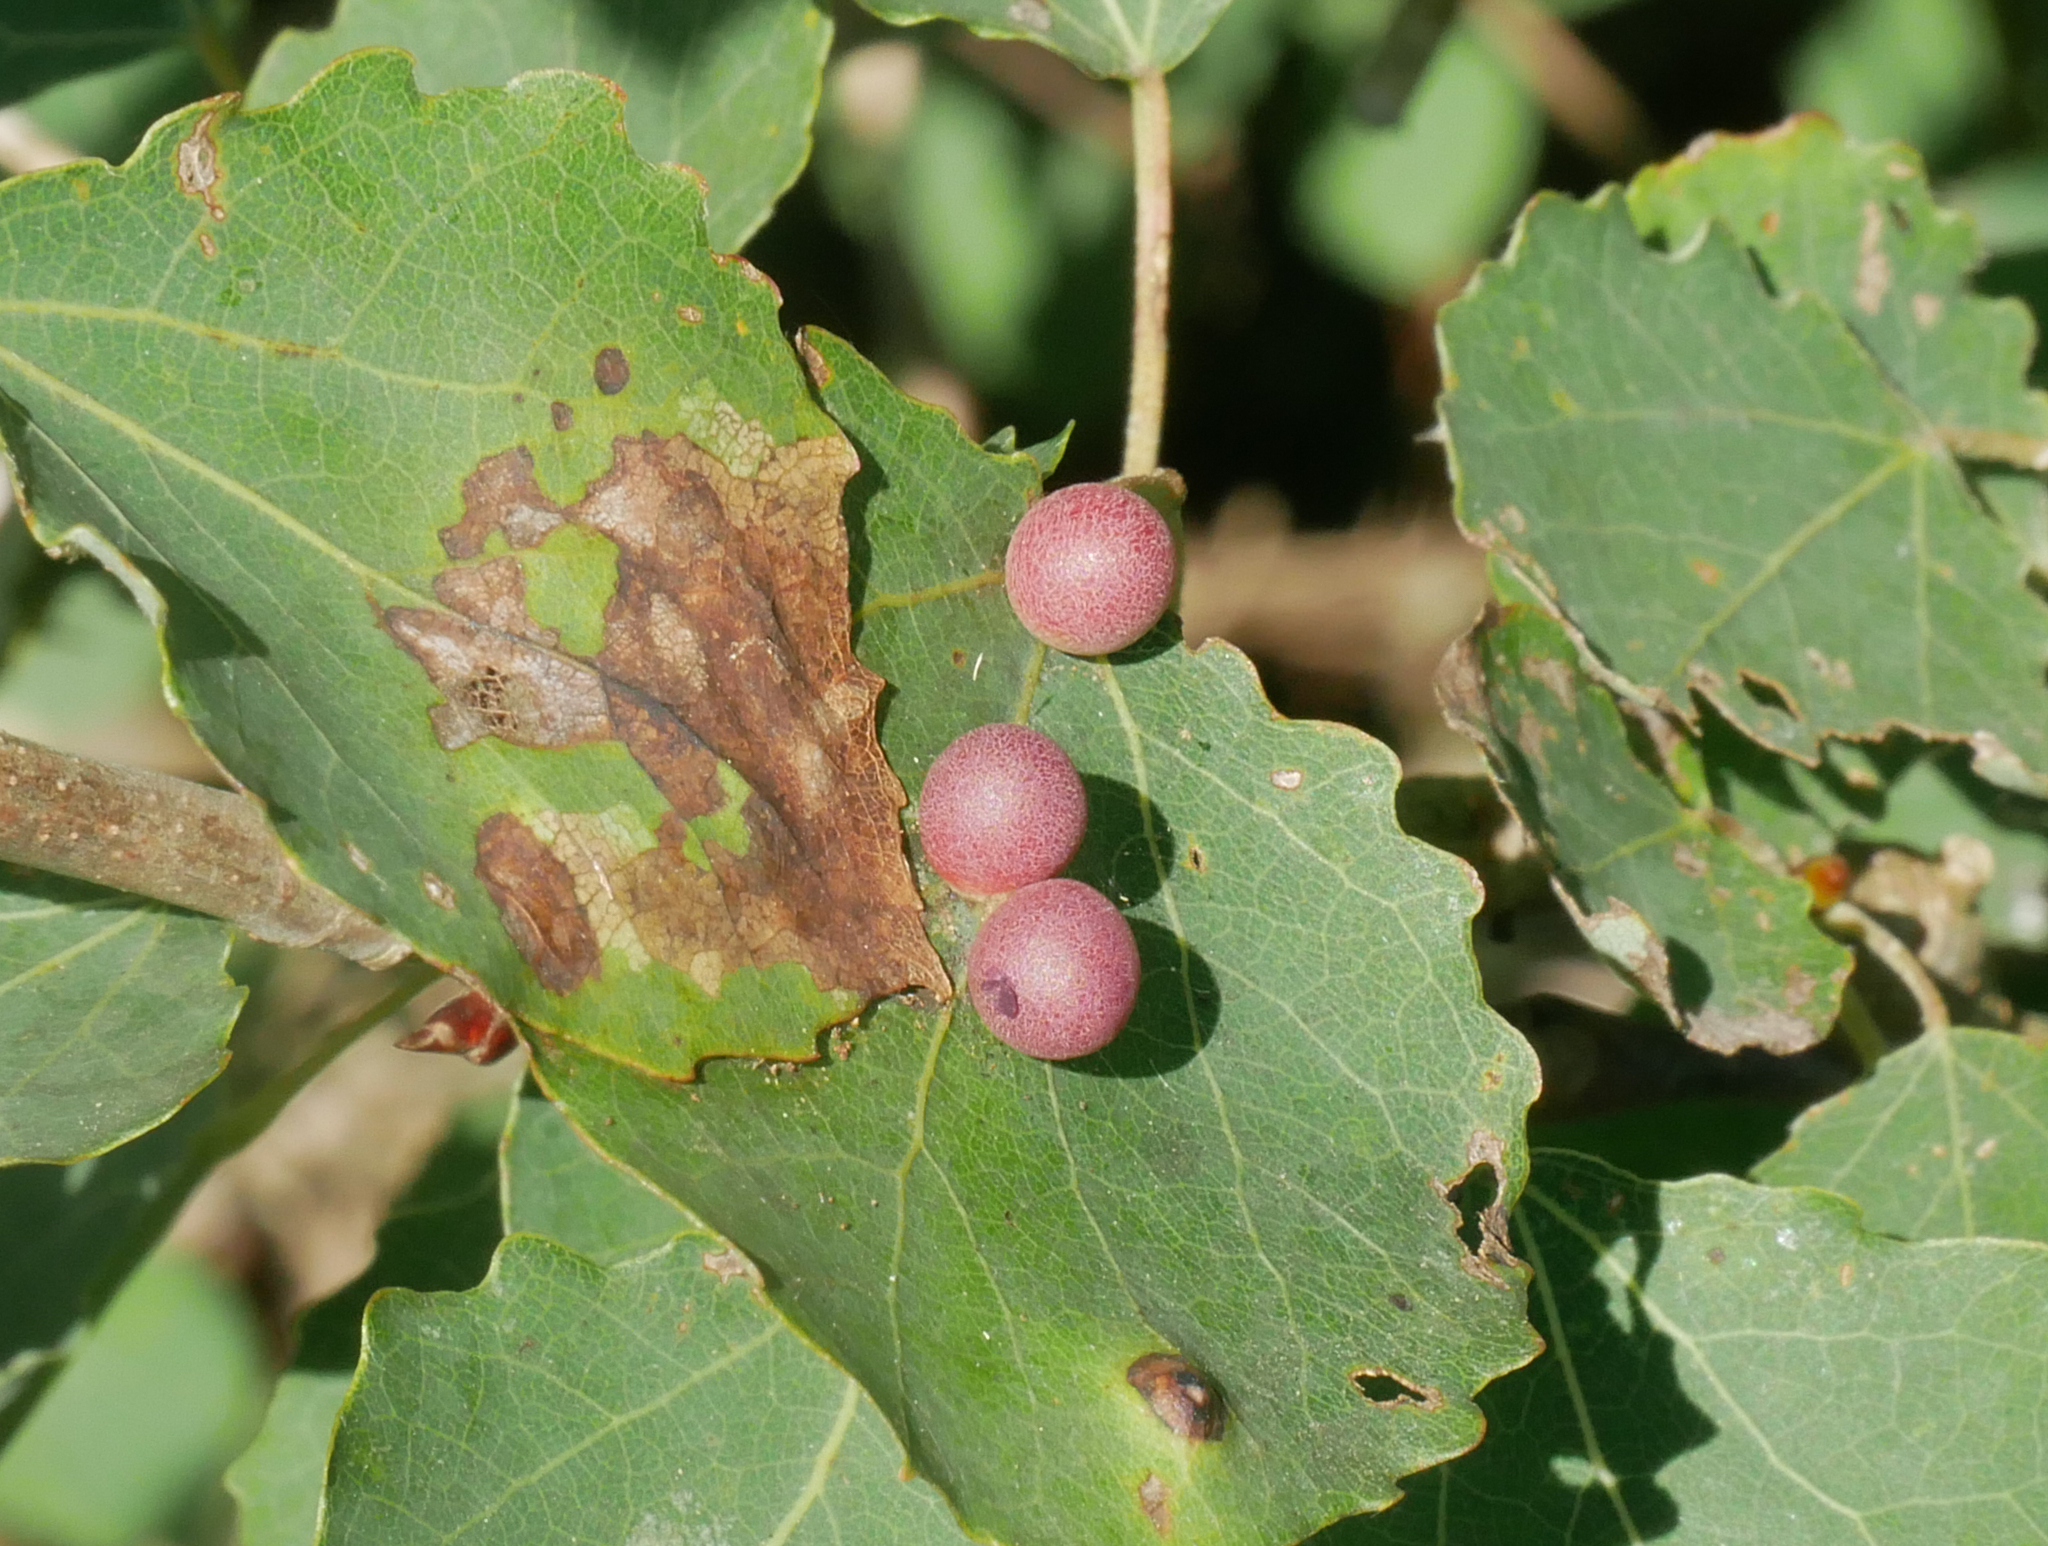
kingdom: Animalia
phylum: Arthropoda
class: Insecta
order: Diptera
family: Cecidomyiidae
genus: Harmandiola
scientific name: Harmandiola tremulae
